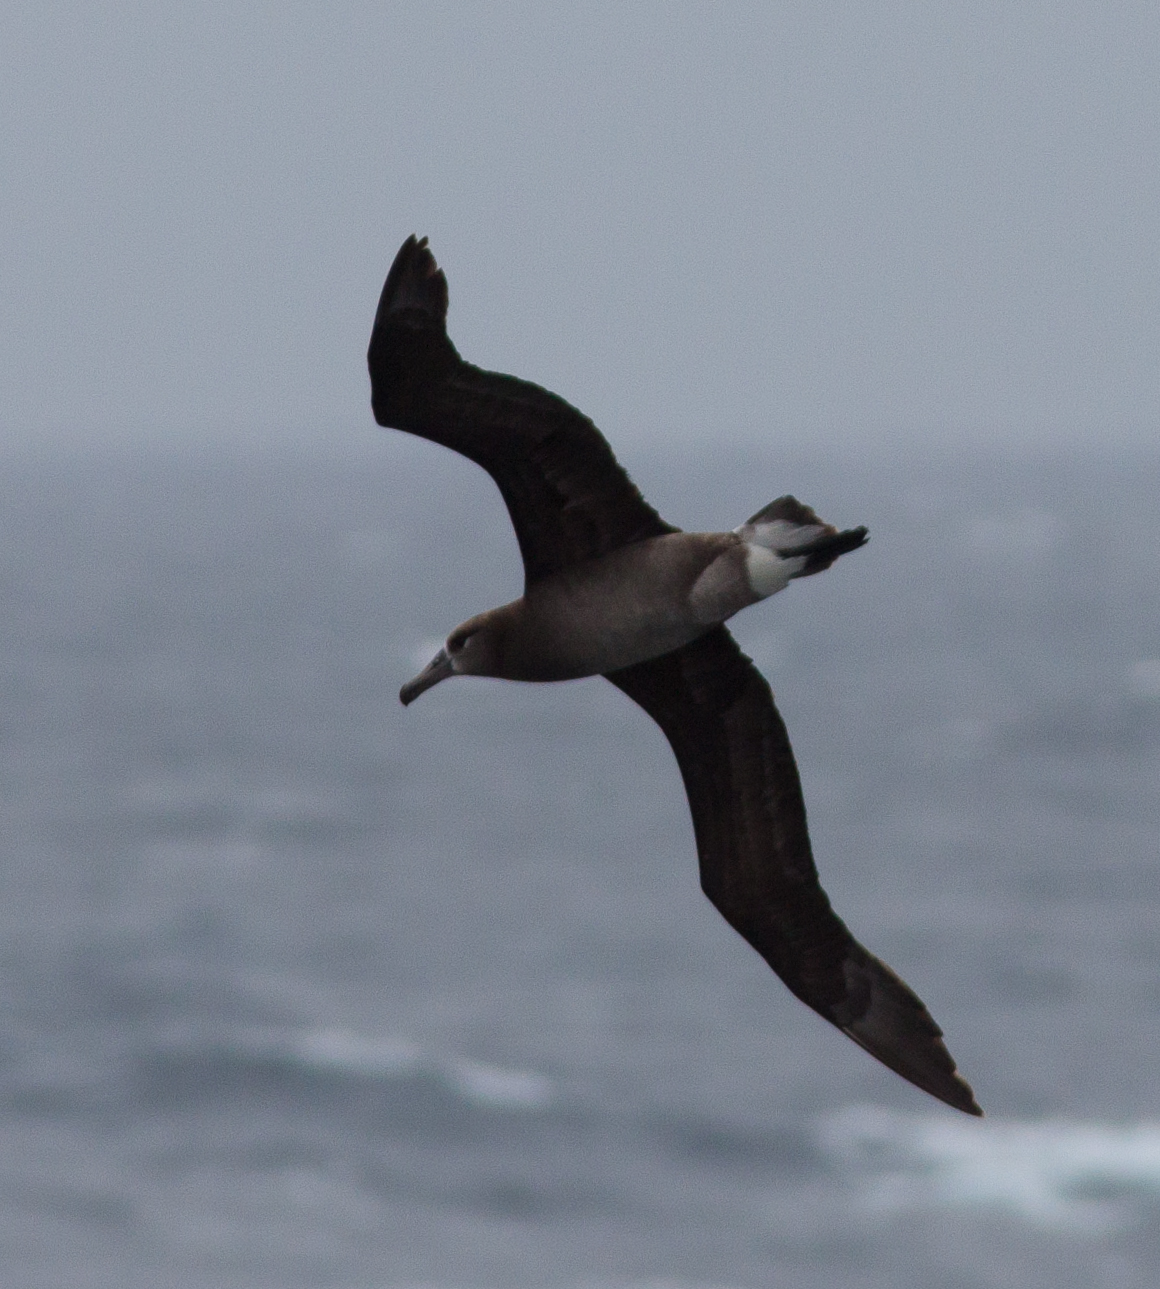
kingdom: Animalia
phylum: Chordata
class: Aves
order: Procellariiformes
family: Diomedeidae
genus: Phoebastria
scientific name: Phoebastria nigripes
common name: Black-footed albatross
